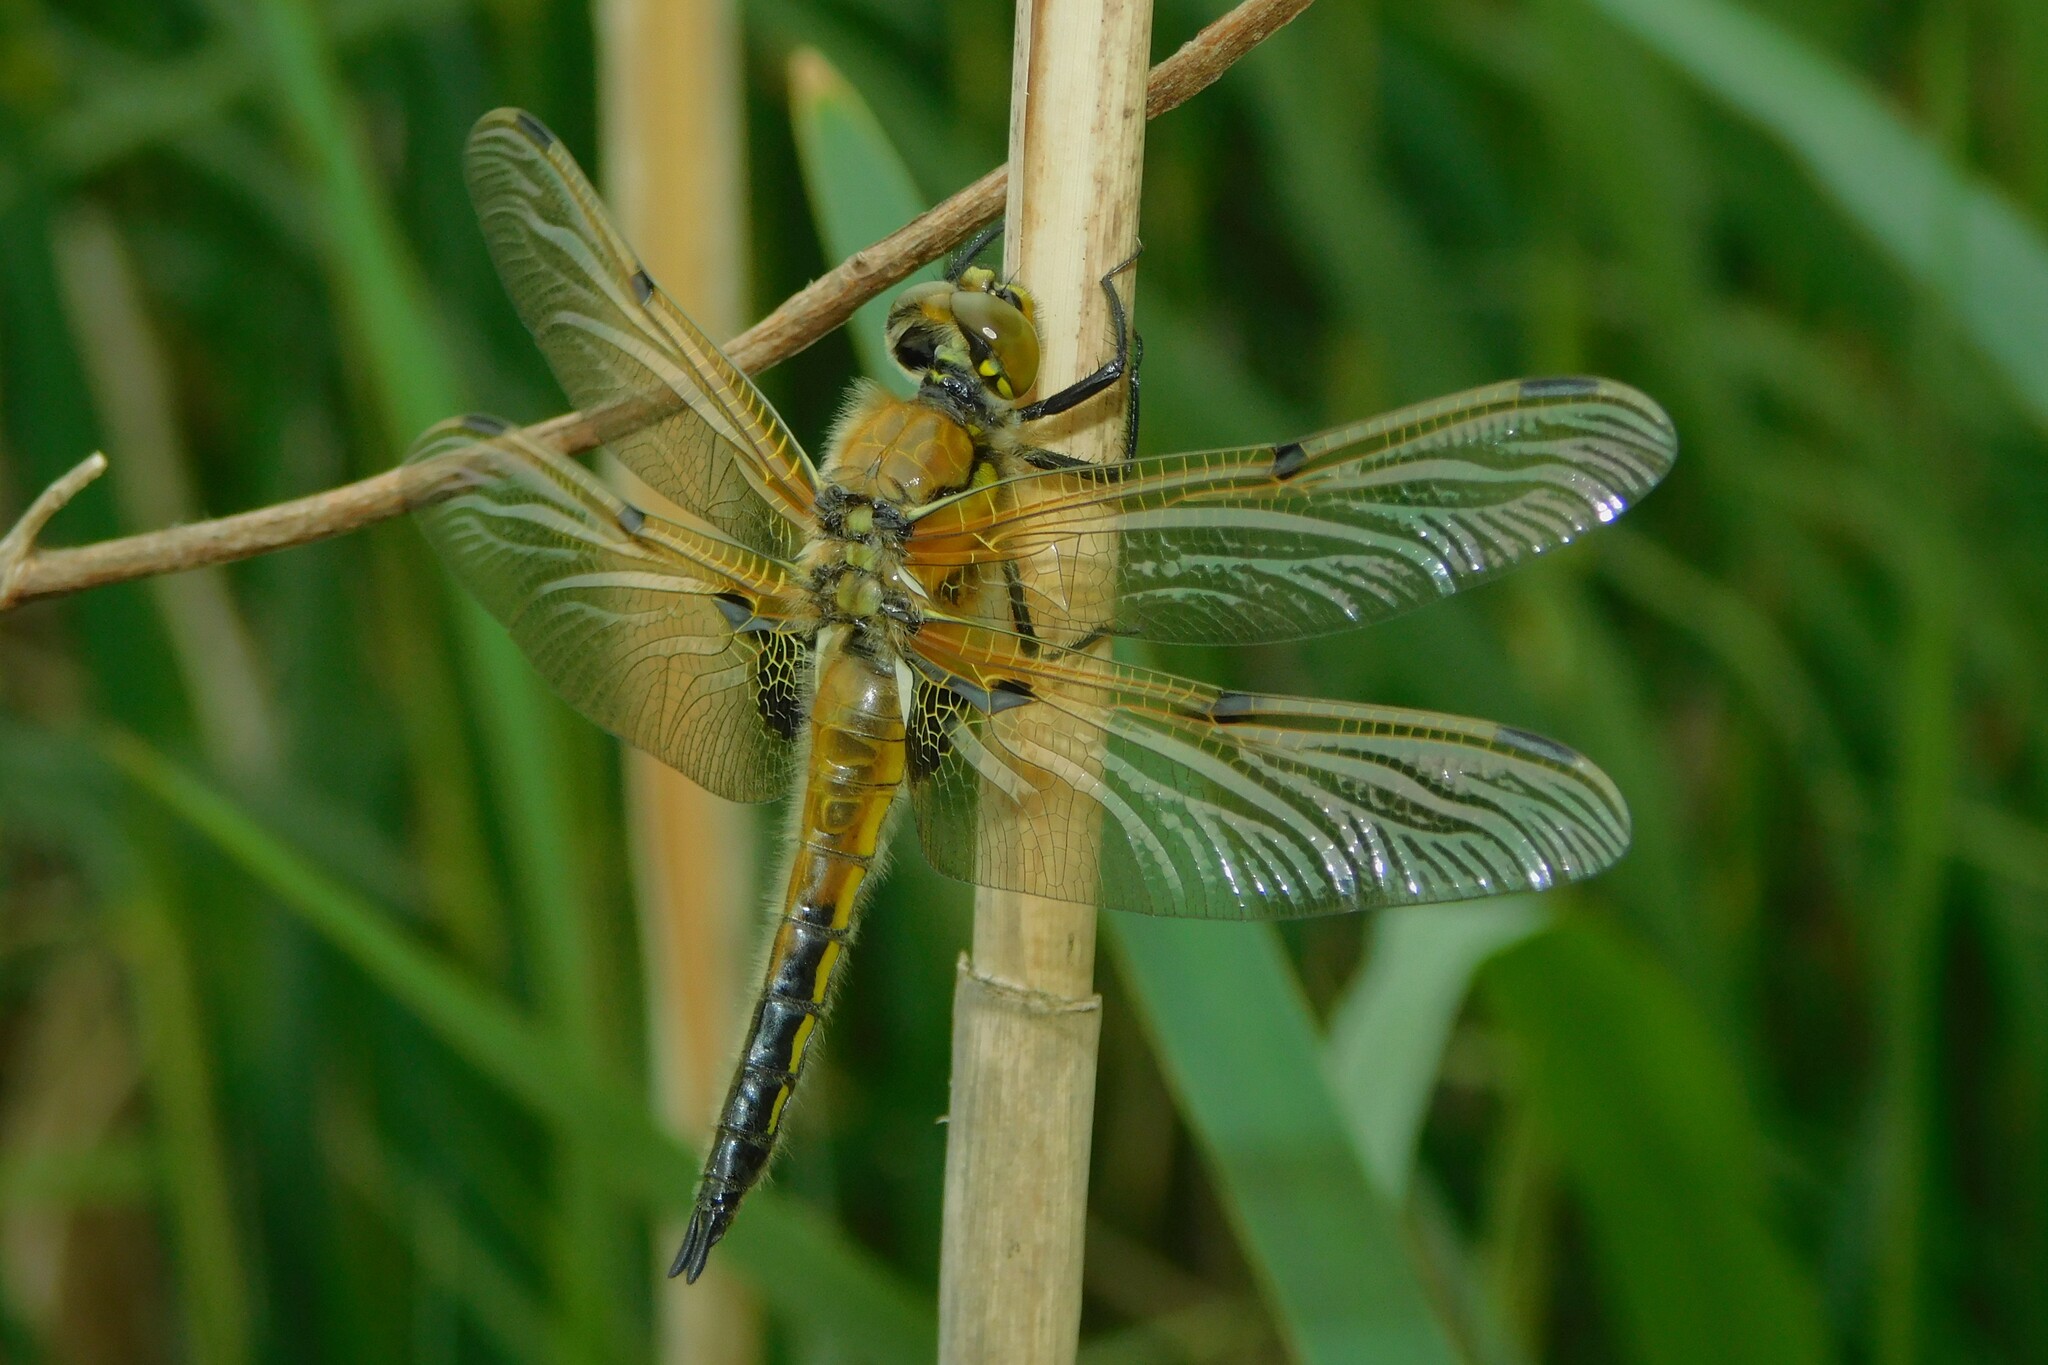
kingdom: Animalia
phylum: Arthropoda
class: Insecta
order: Odonata
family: Libellulidae
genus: Libellula
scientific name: Libellula quadrimaculata
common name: Four-spotted chaser
